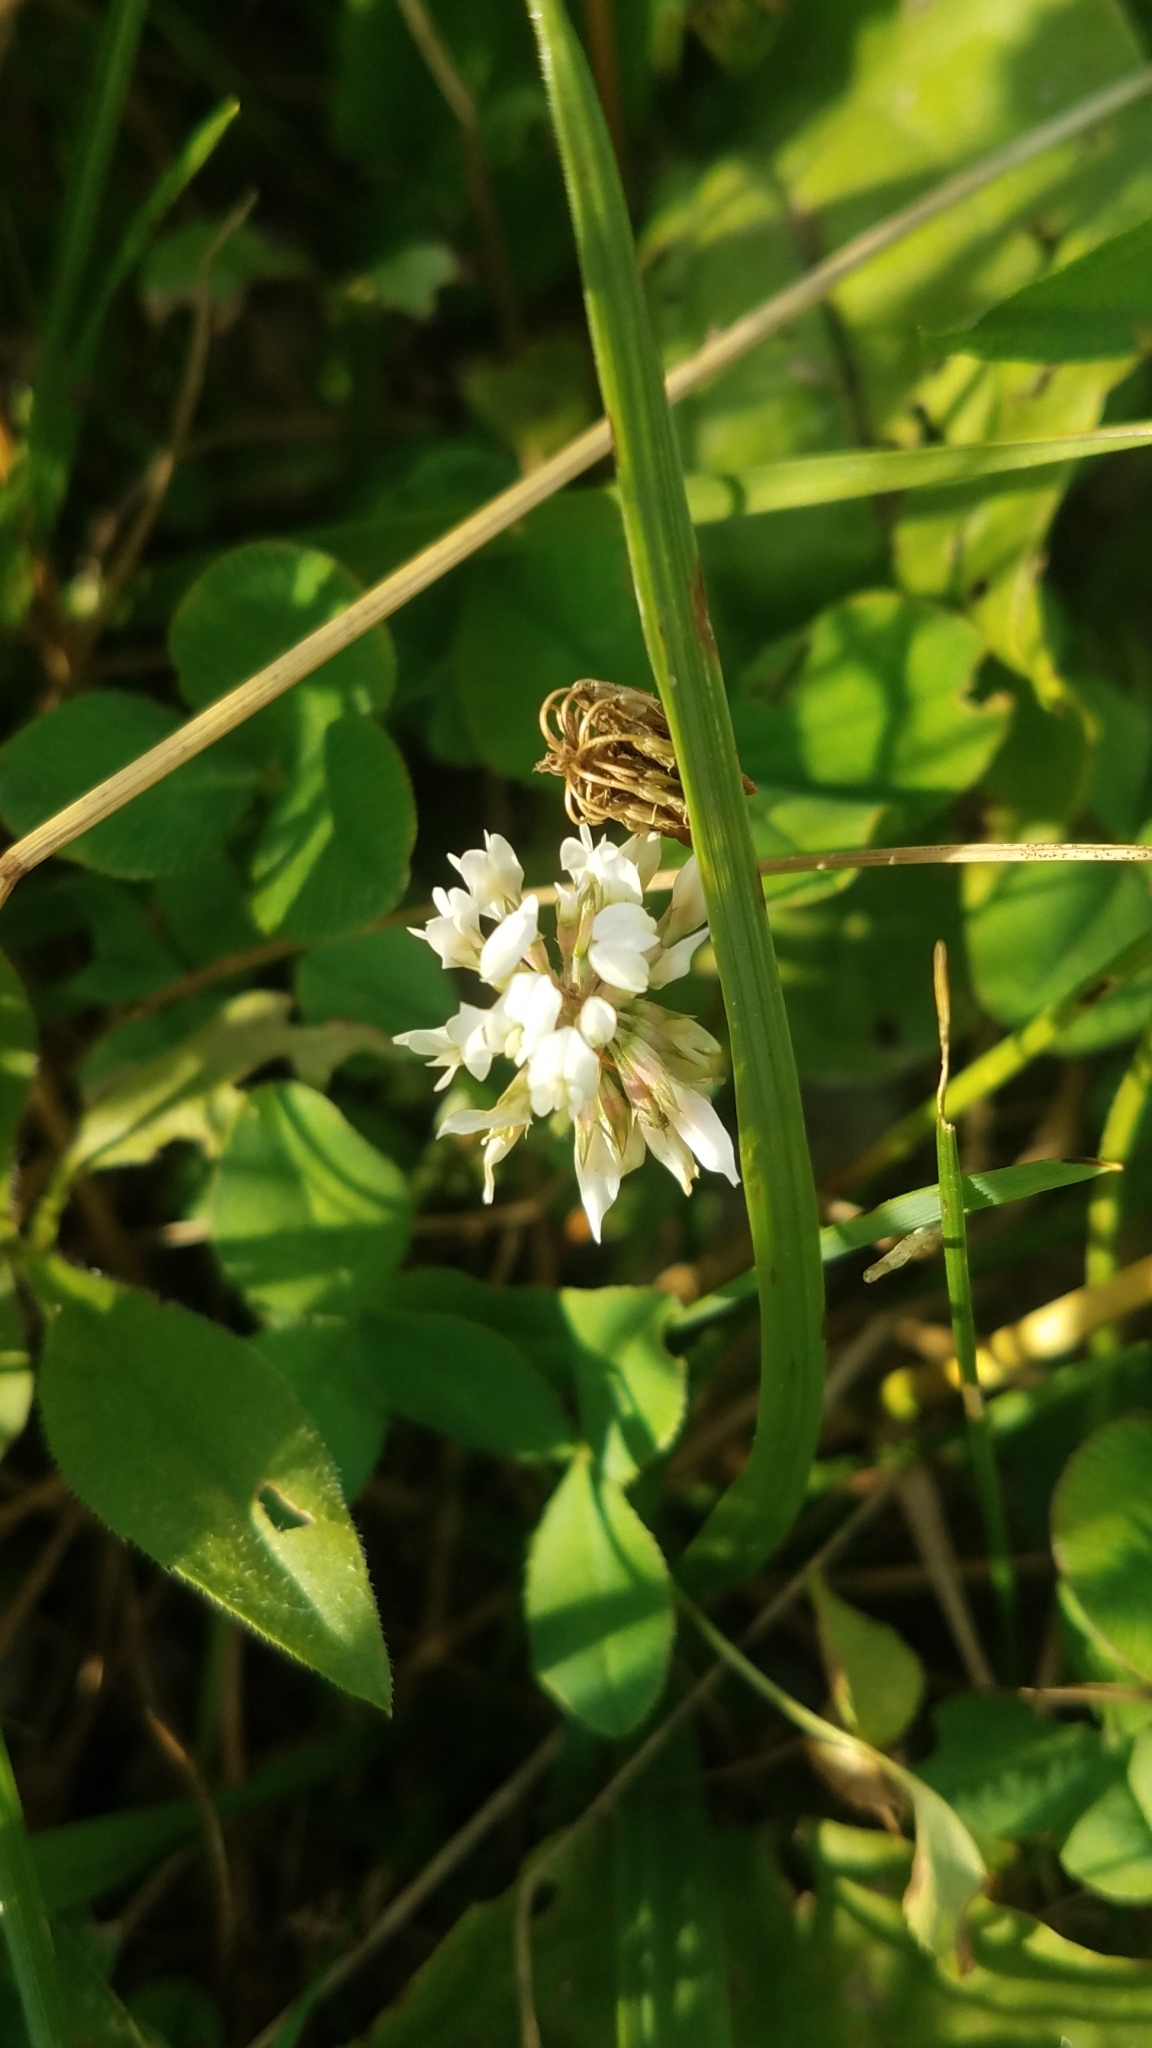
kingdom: Plantae
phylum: Tracheophyta
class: Magnoliopsida
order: Fabales
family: Fabaceae
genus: Trifolium
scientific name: Trifolium repens
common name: White clover
